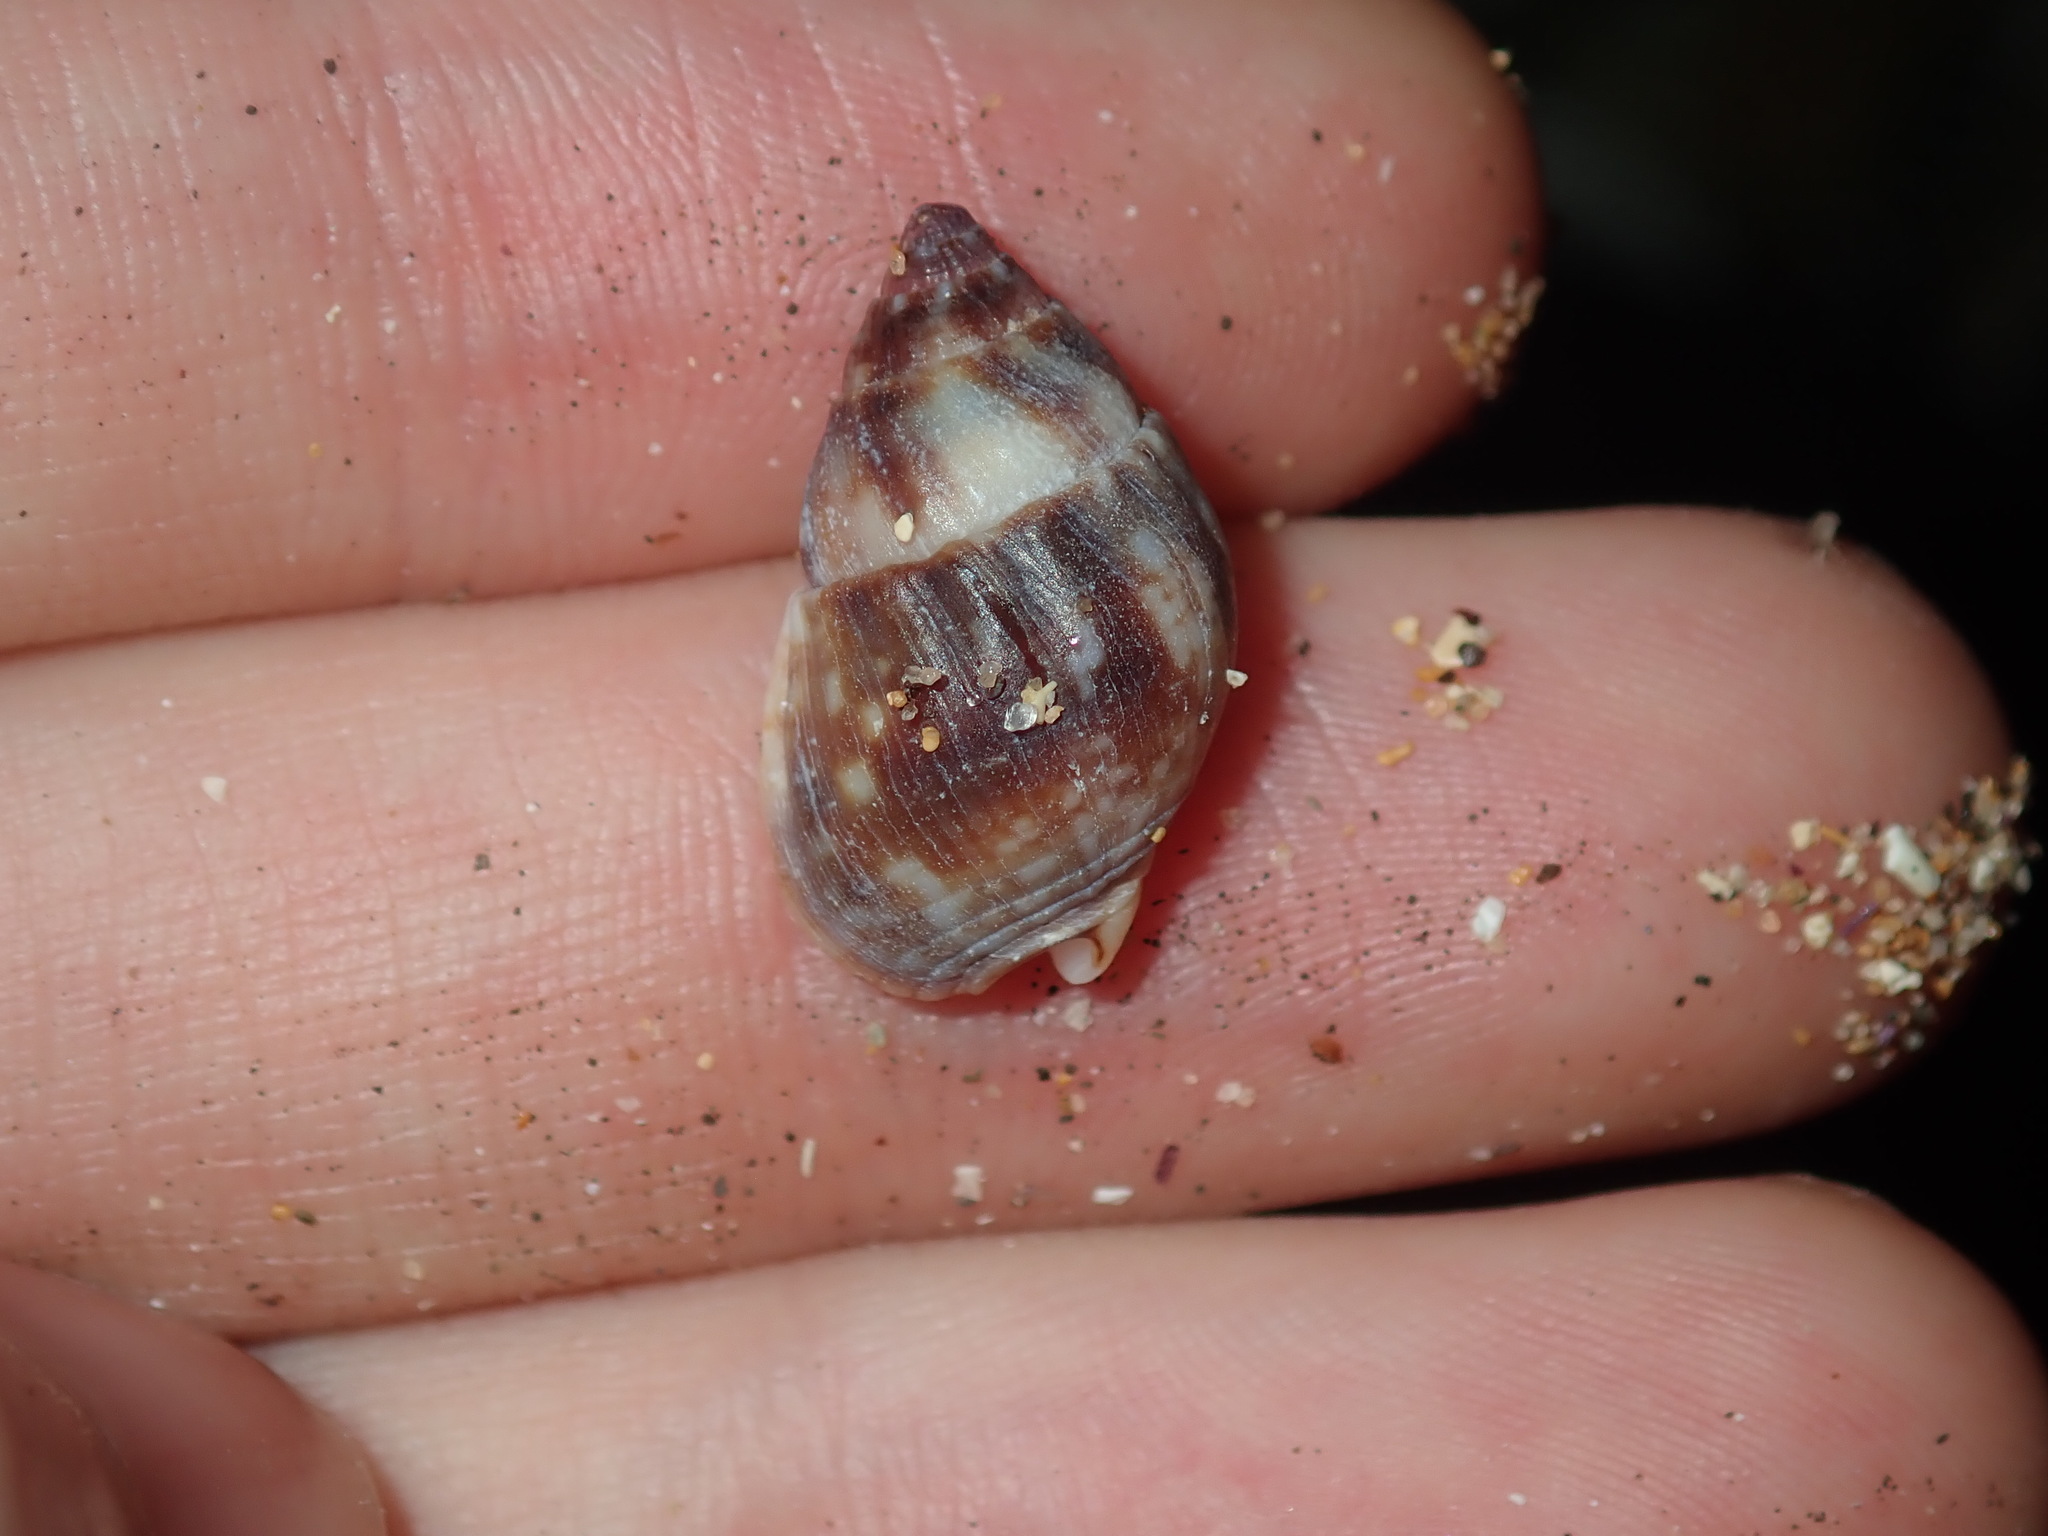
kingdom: Animalia
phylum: Mollusca
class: Gastropoda
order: Neogastropoda
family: Nassariidae
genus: Nassarius
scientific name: Nassarius gaudiosus
